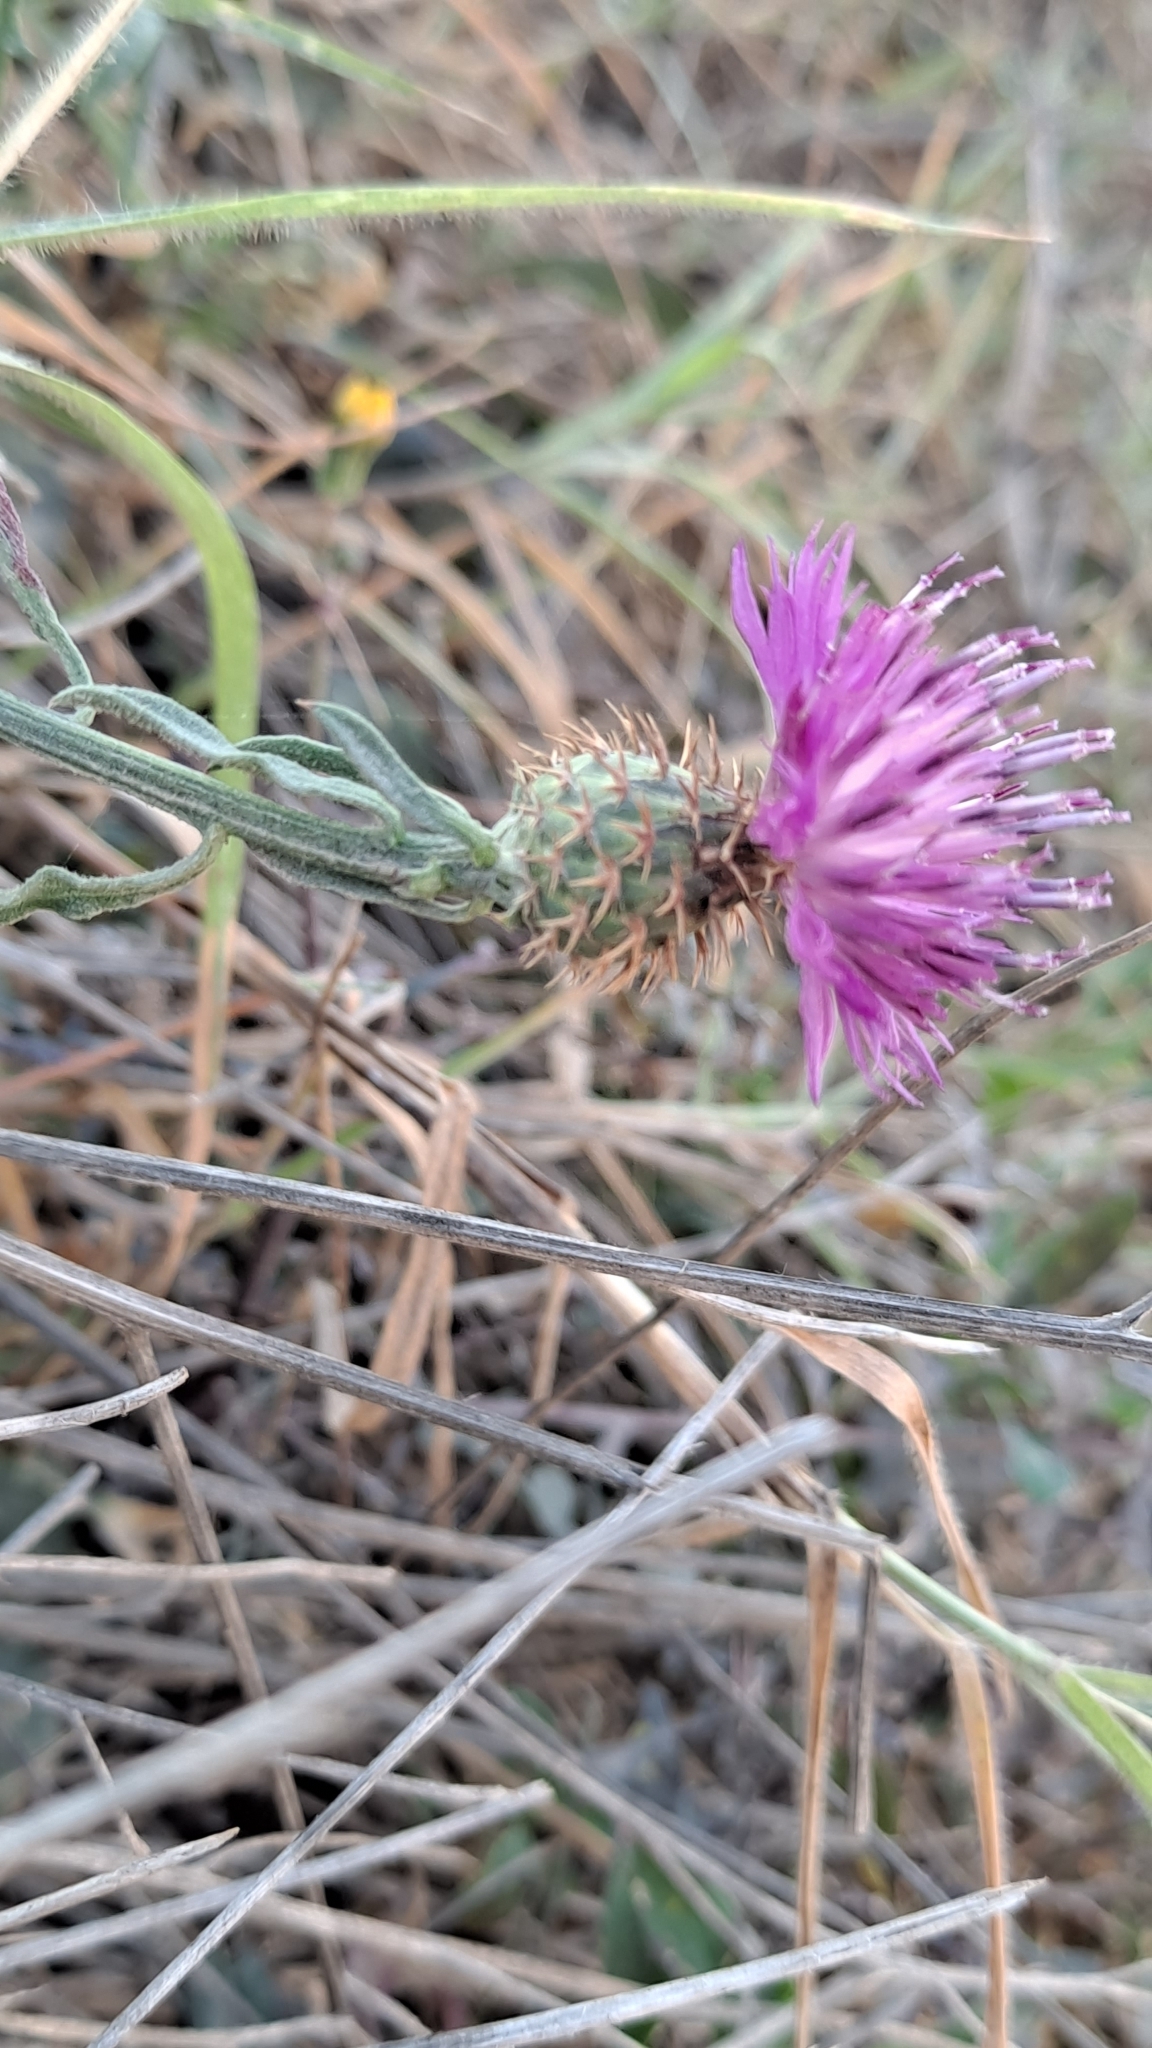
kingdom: Plantae
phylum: Tracheophyta
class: Magnoliopsida
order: Asterales
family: Asteraceae
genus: Centaurea
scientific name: Centaurea aspera
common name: Rough star-thistle
